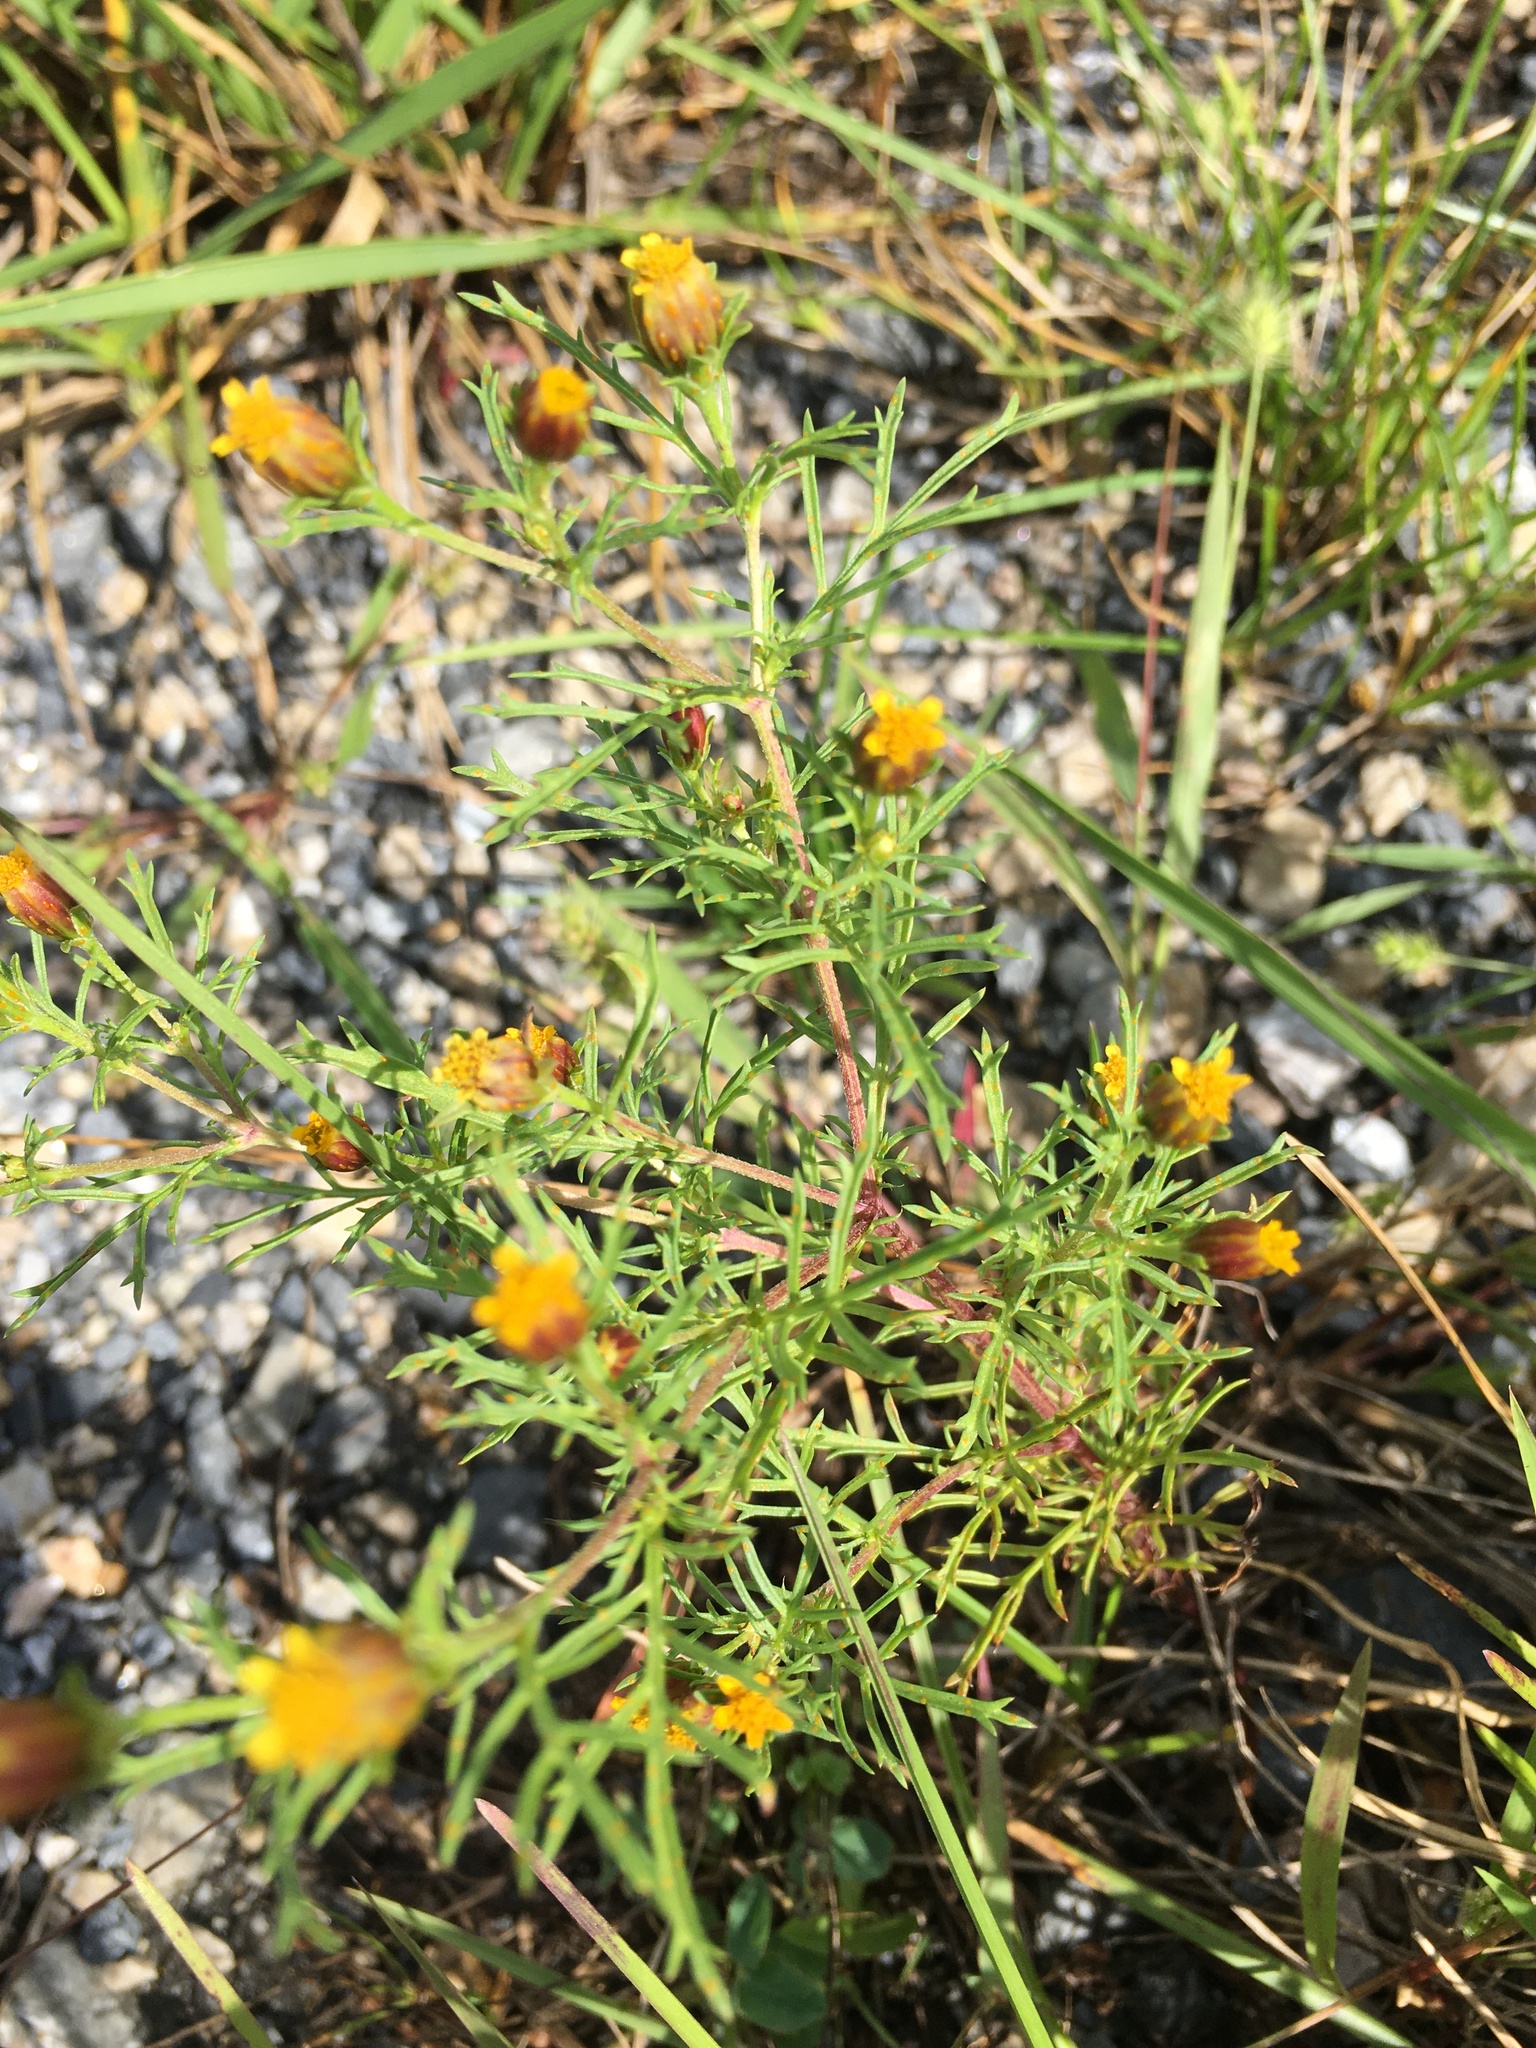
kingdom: Plantae
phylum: Tracheophyta
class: Magnoliopsida
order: Asterales
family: Asteraceae
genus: Dyssodia
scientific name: Dyssodia papposa
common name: Dogweed
